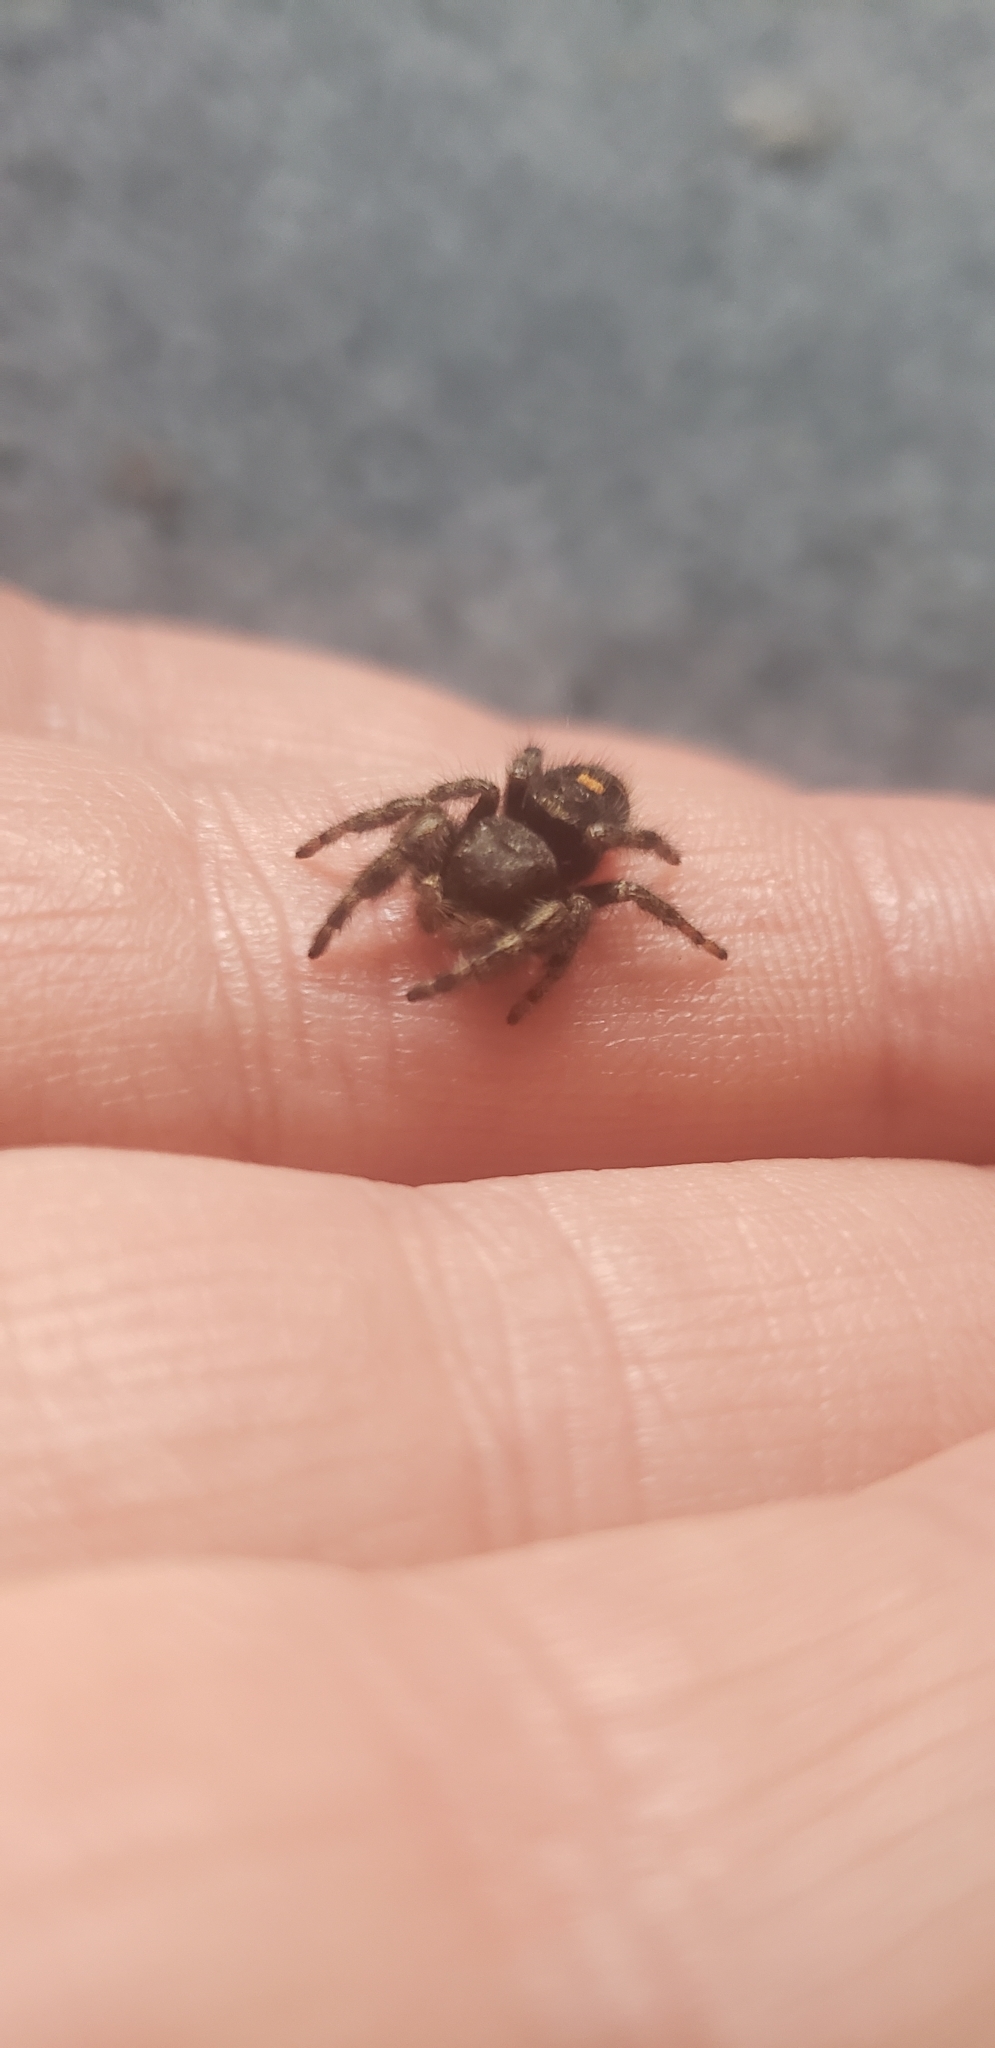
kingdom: Animalia
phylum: Arthropoda
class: Arachnida
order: Araneae
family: Salticidae
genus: Phidippus
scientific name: Phidippus audax
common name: Bold jumper
